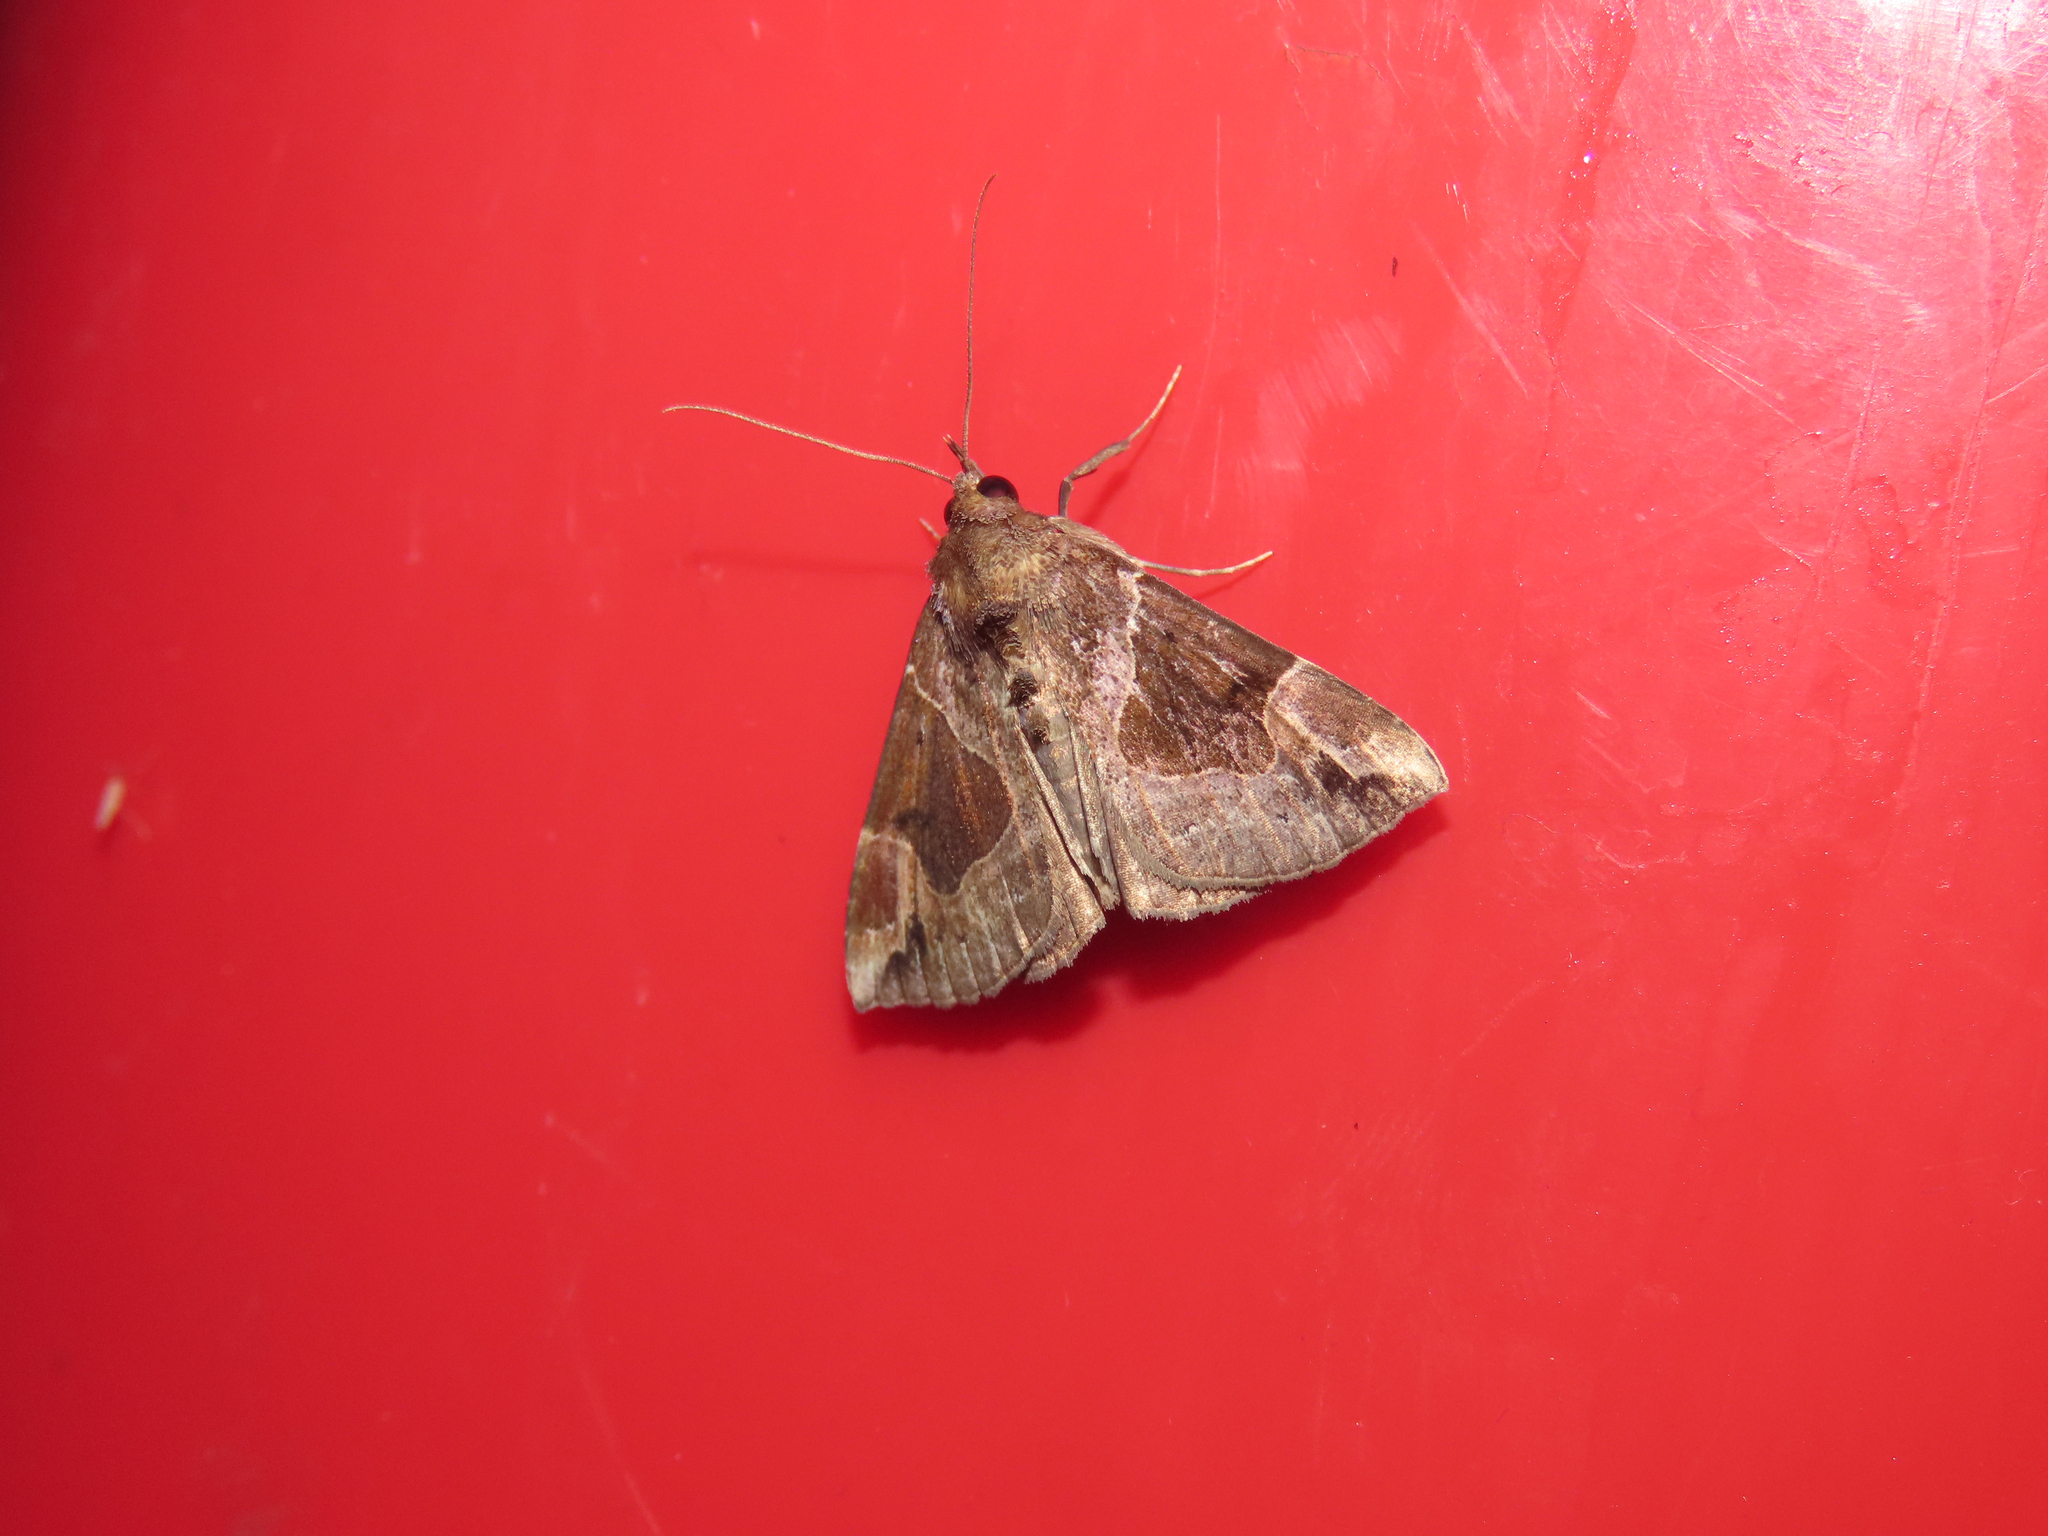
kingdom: Animalia
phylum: Arthropoda
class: Insecta
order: Lepidoptera
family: Erebidae
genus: Hypena
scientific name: Hypena manalis
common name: Flowing-line bomolocha moth
